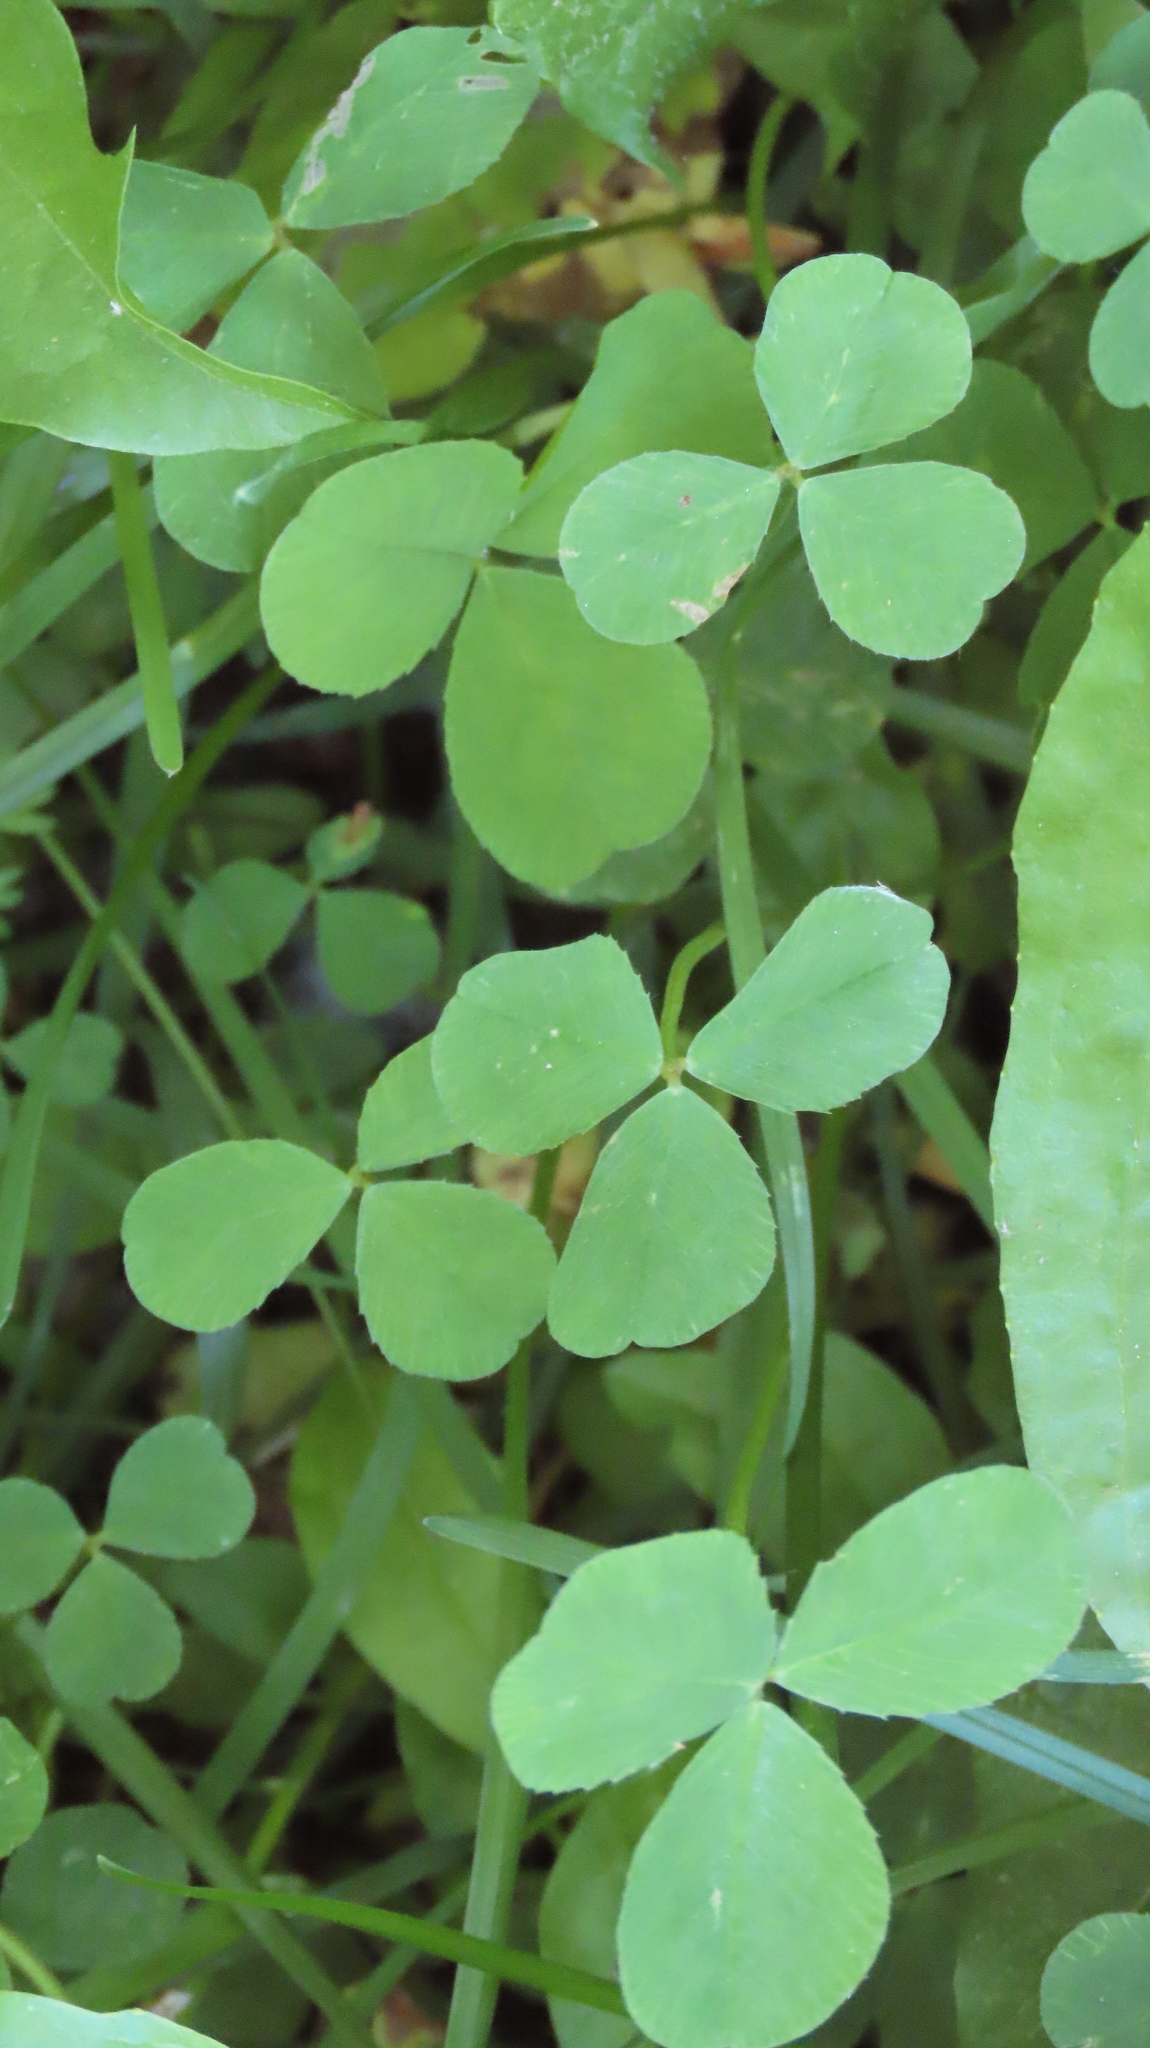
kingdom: Plantae
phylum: Tracheophyta
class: Magnoliopsida
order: Fabales
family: Fabaceae
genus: Trifolium
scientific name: Trifolium repens
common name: White clover
